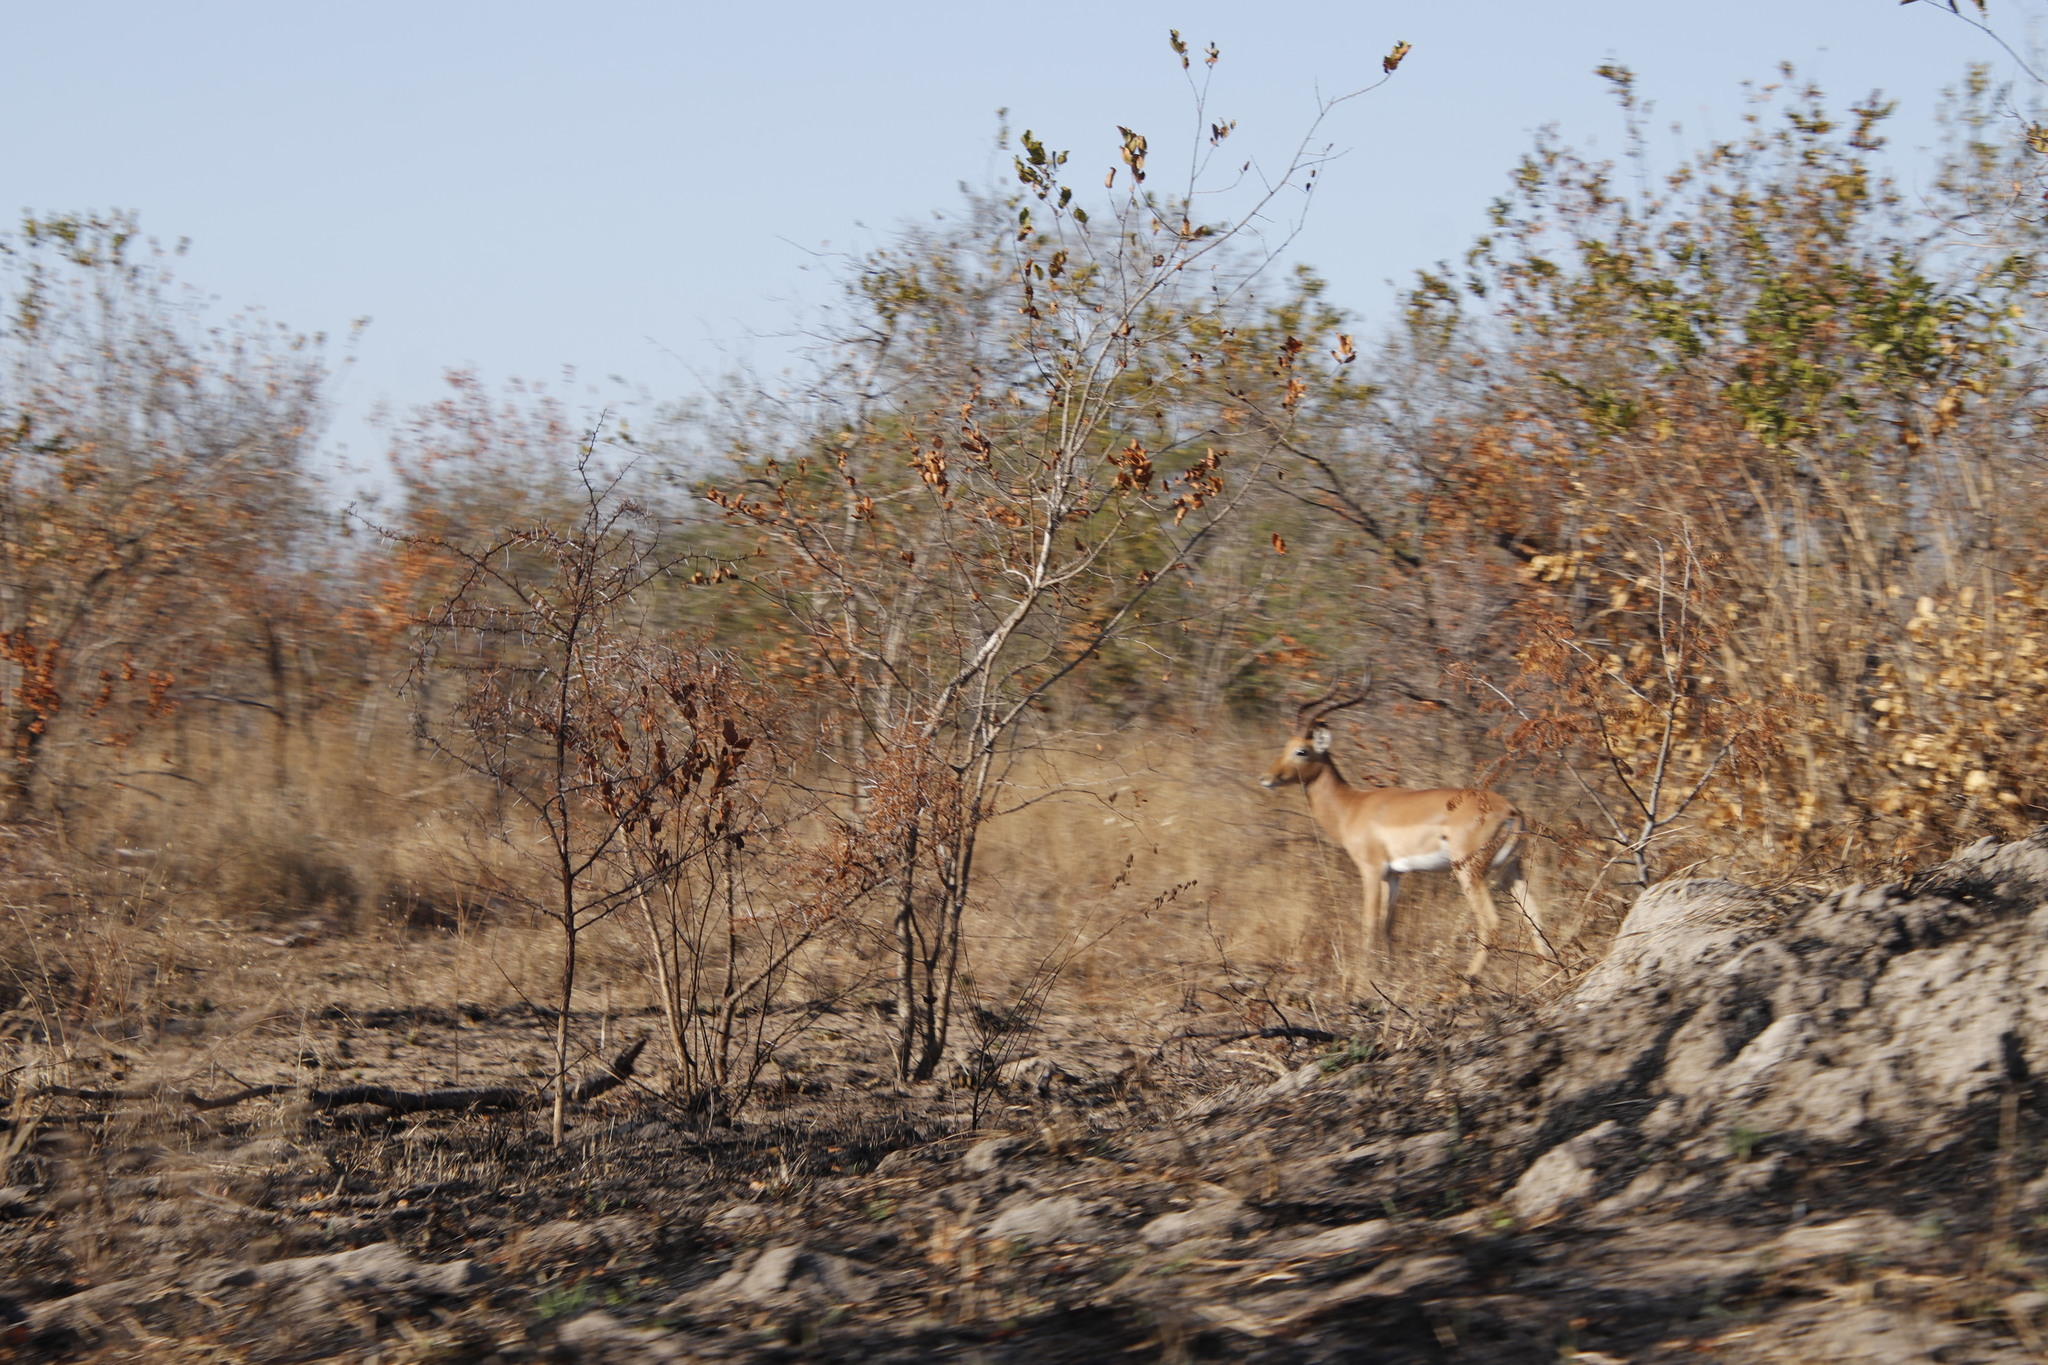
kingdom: Animalia
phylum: Chordata
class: Mammalia
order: Artiodactyla
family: Bovidae
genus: Aepyceros
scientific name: Aepyceros melampus
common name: Impala
